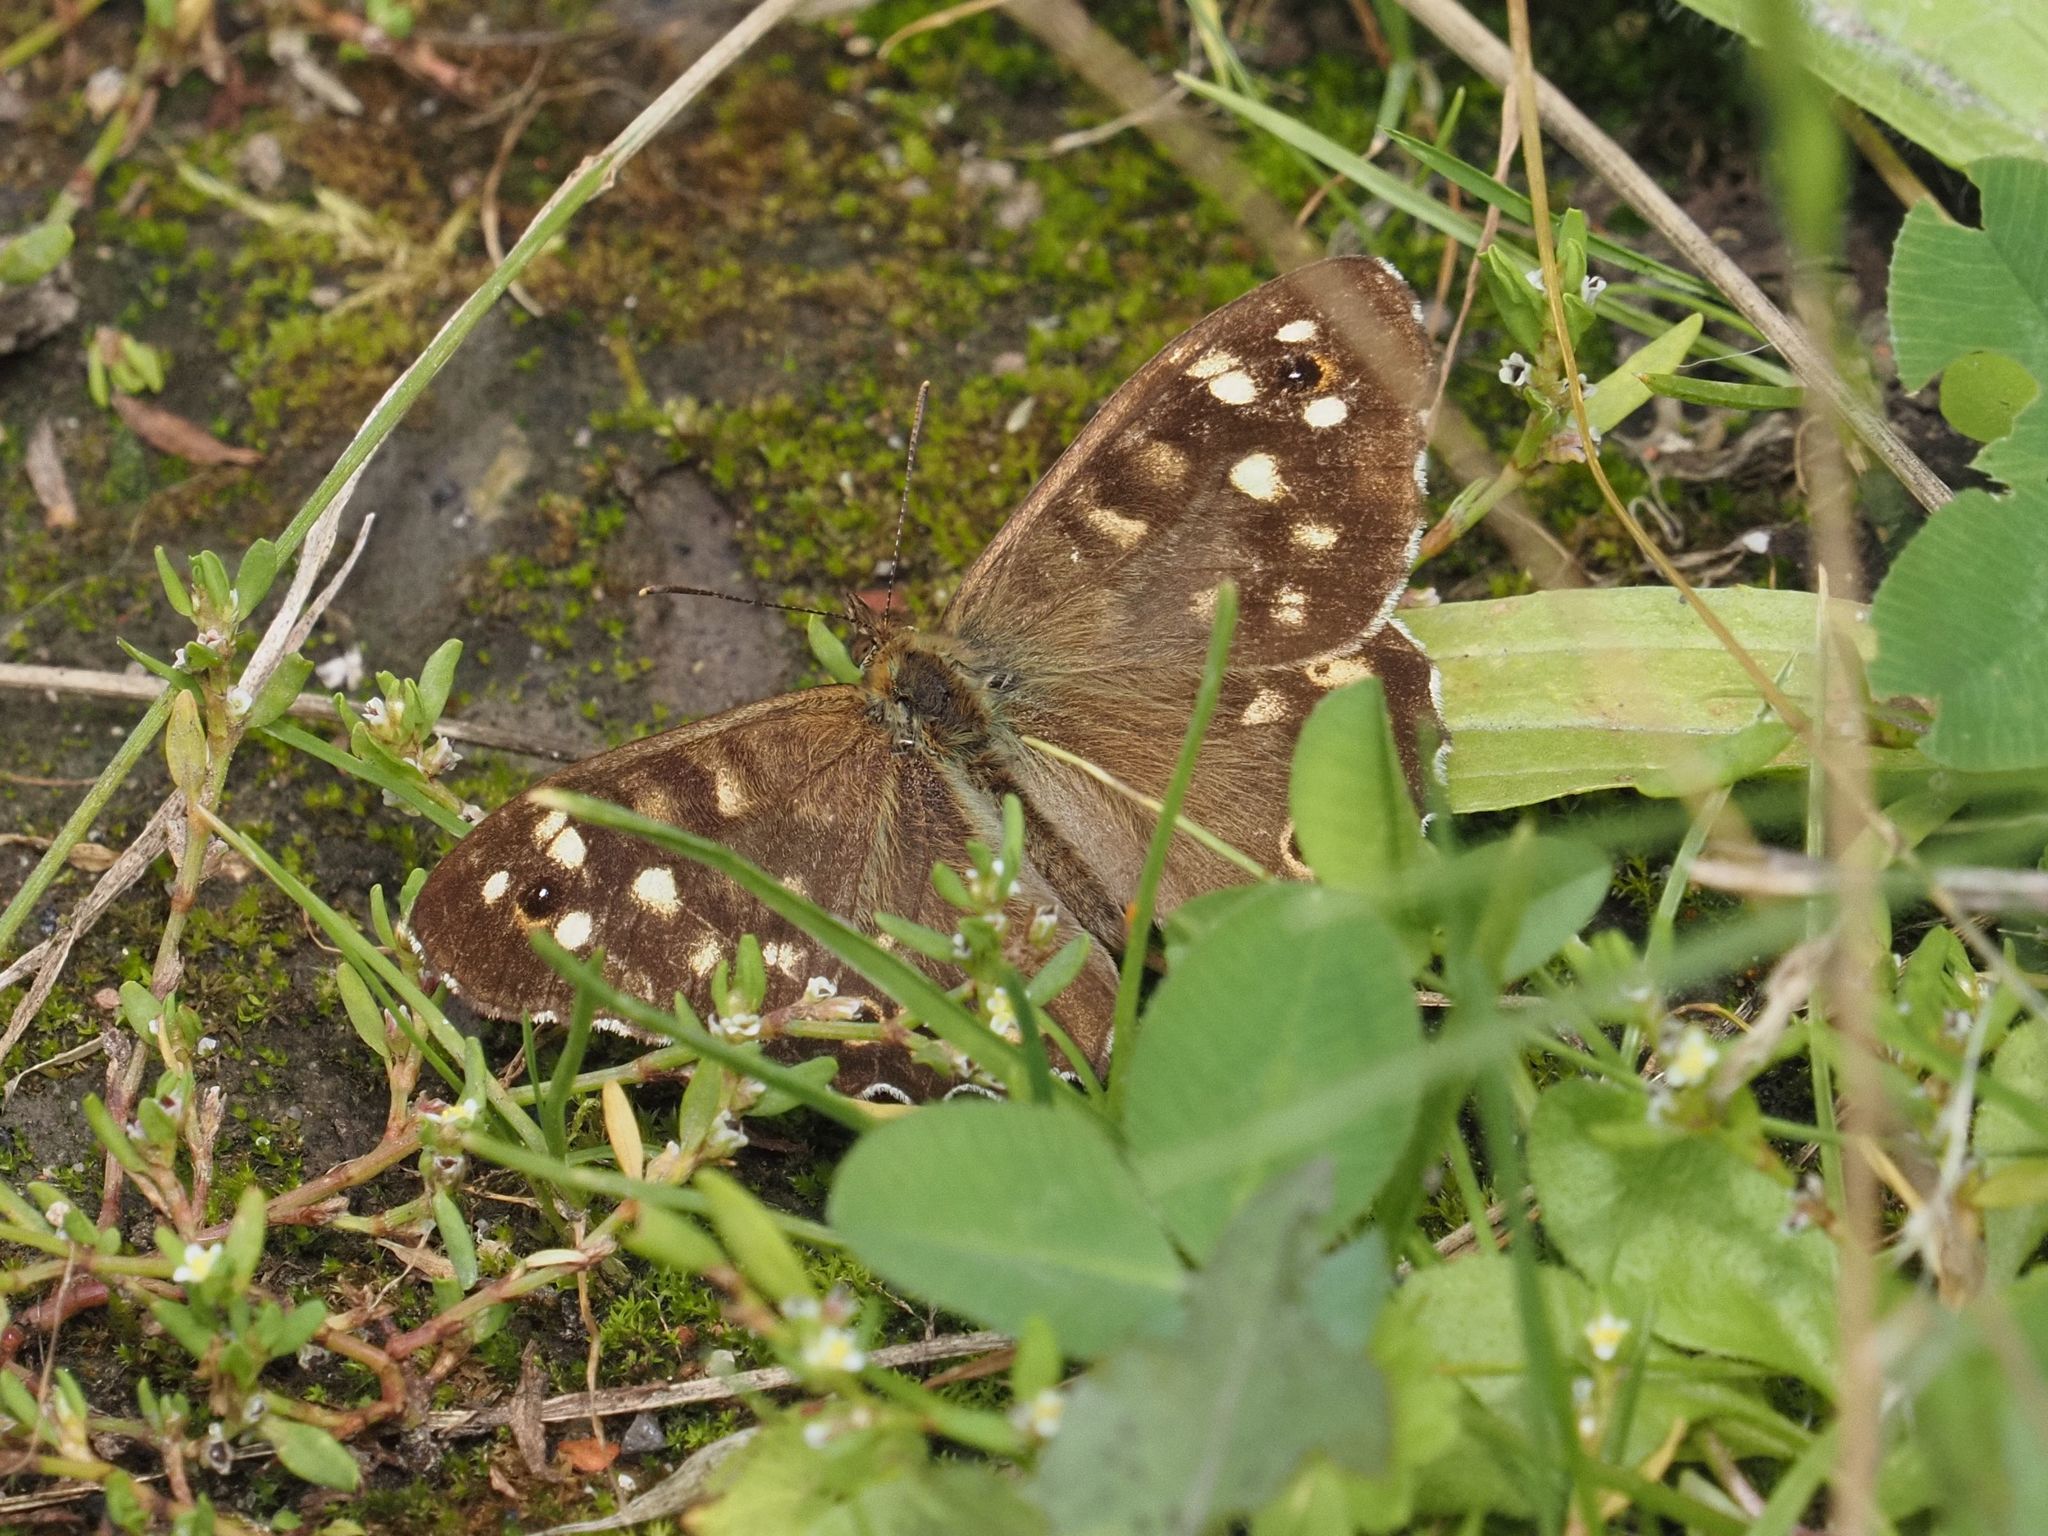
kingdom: Animalia
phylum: Arthropoda
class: Insecta
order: Lepidoptera
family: Nymphalidae
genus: Pararge
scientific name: Pararge aegeria
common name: Speckled wood
